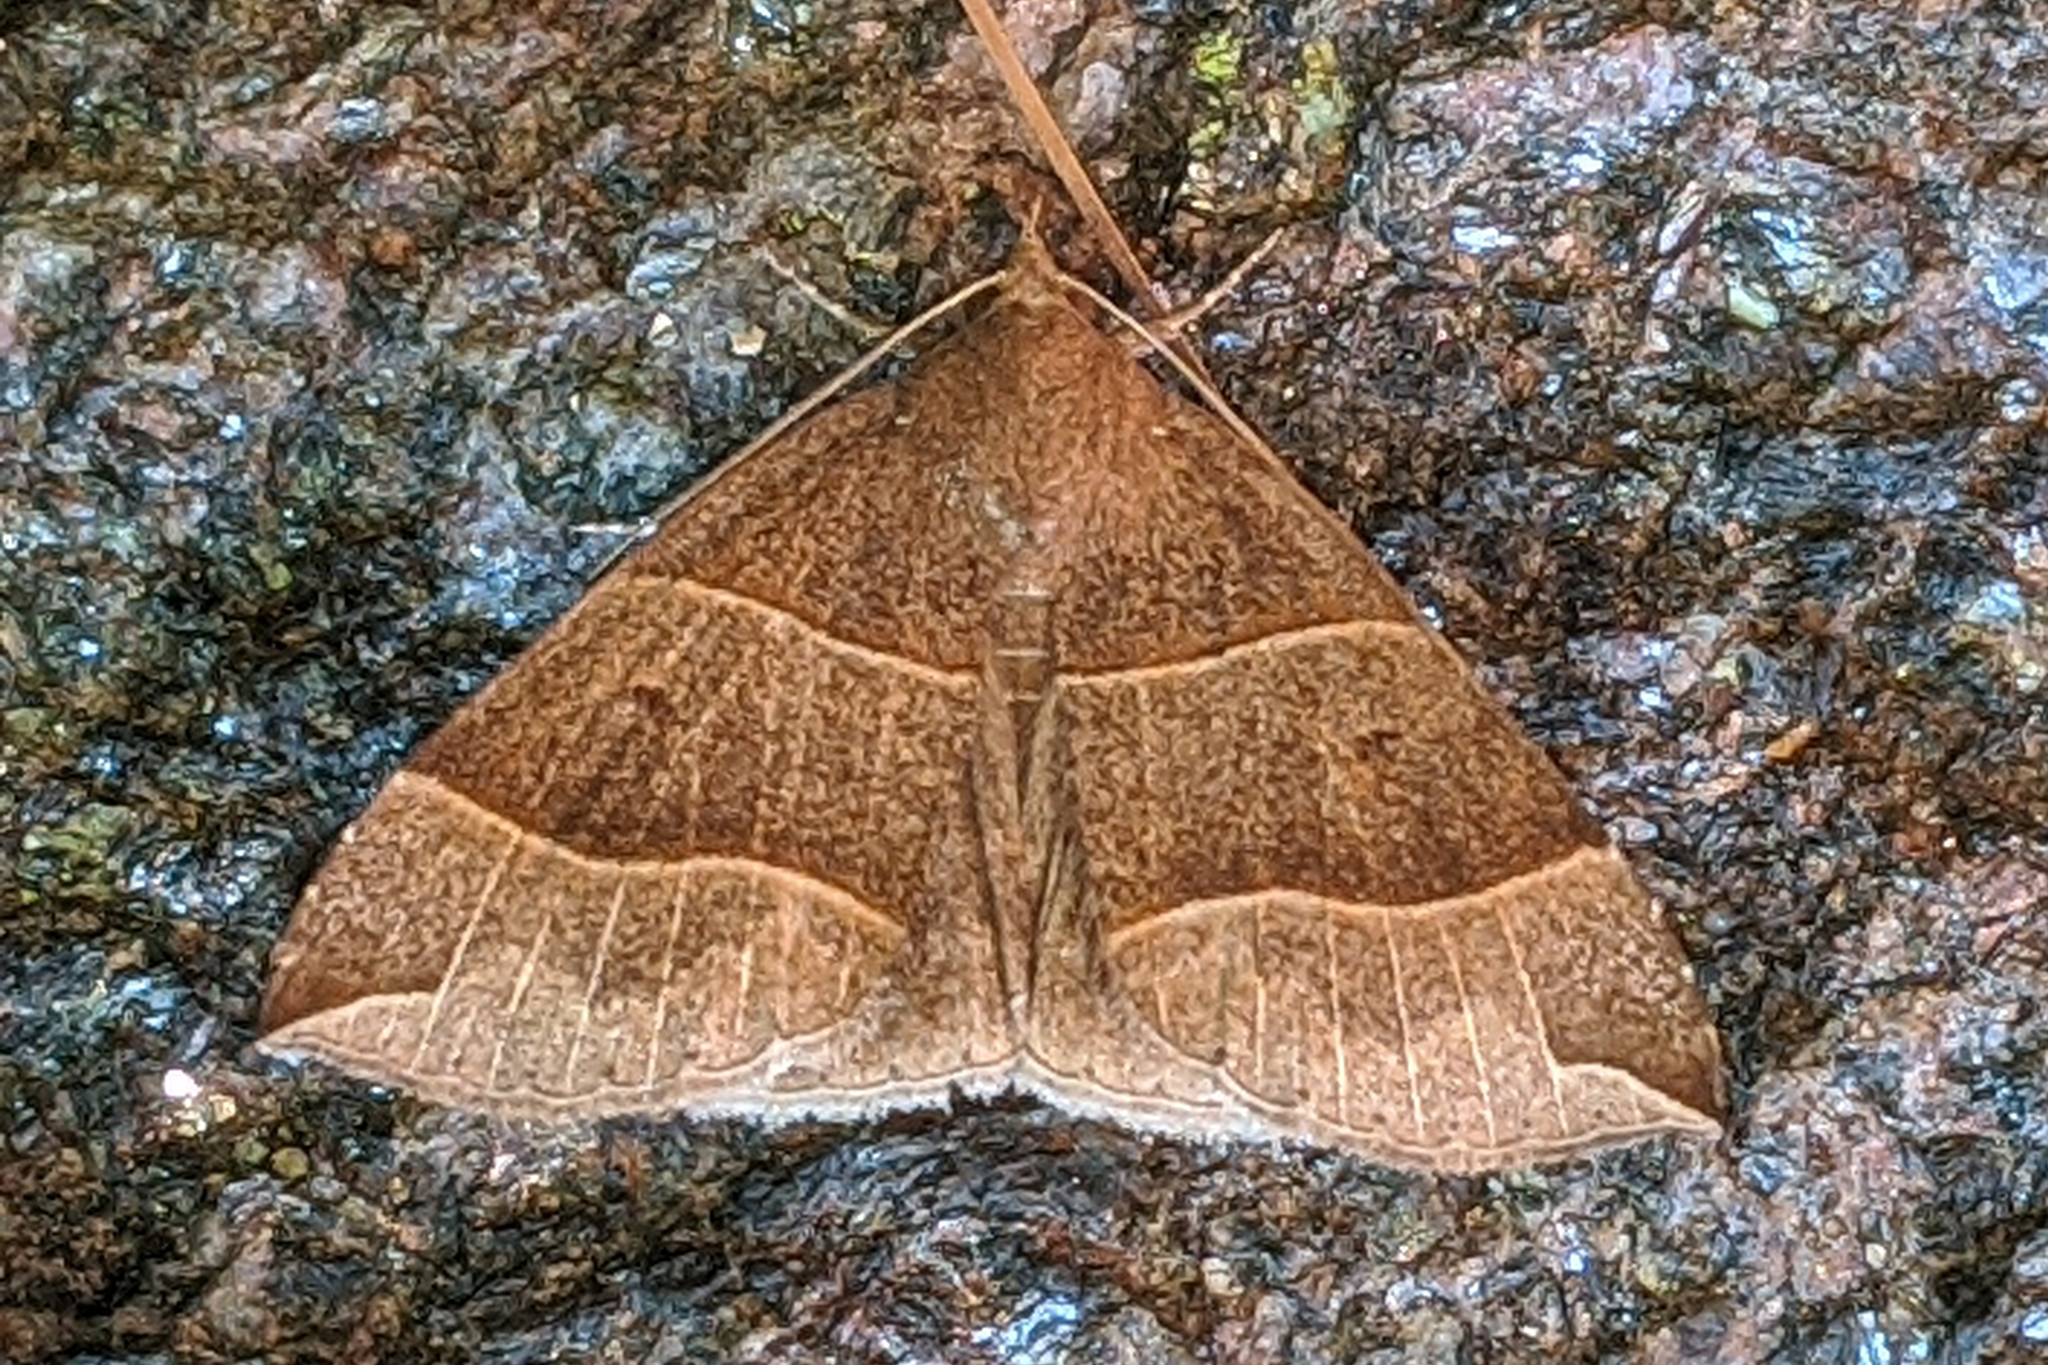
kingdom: Animalia
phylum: Arthropoda
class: Insecta
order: Lepidoptera
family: Erebidae
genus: Parallelia
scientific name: Parallelia bistriaris
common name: Maple looper moth
